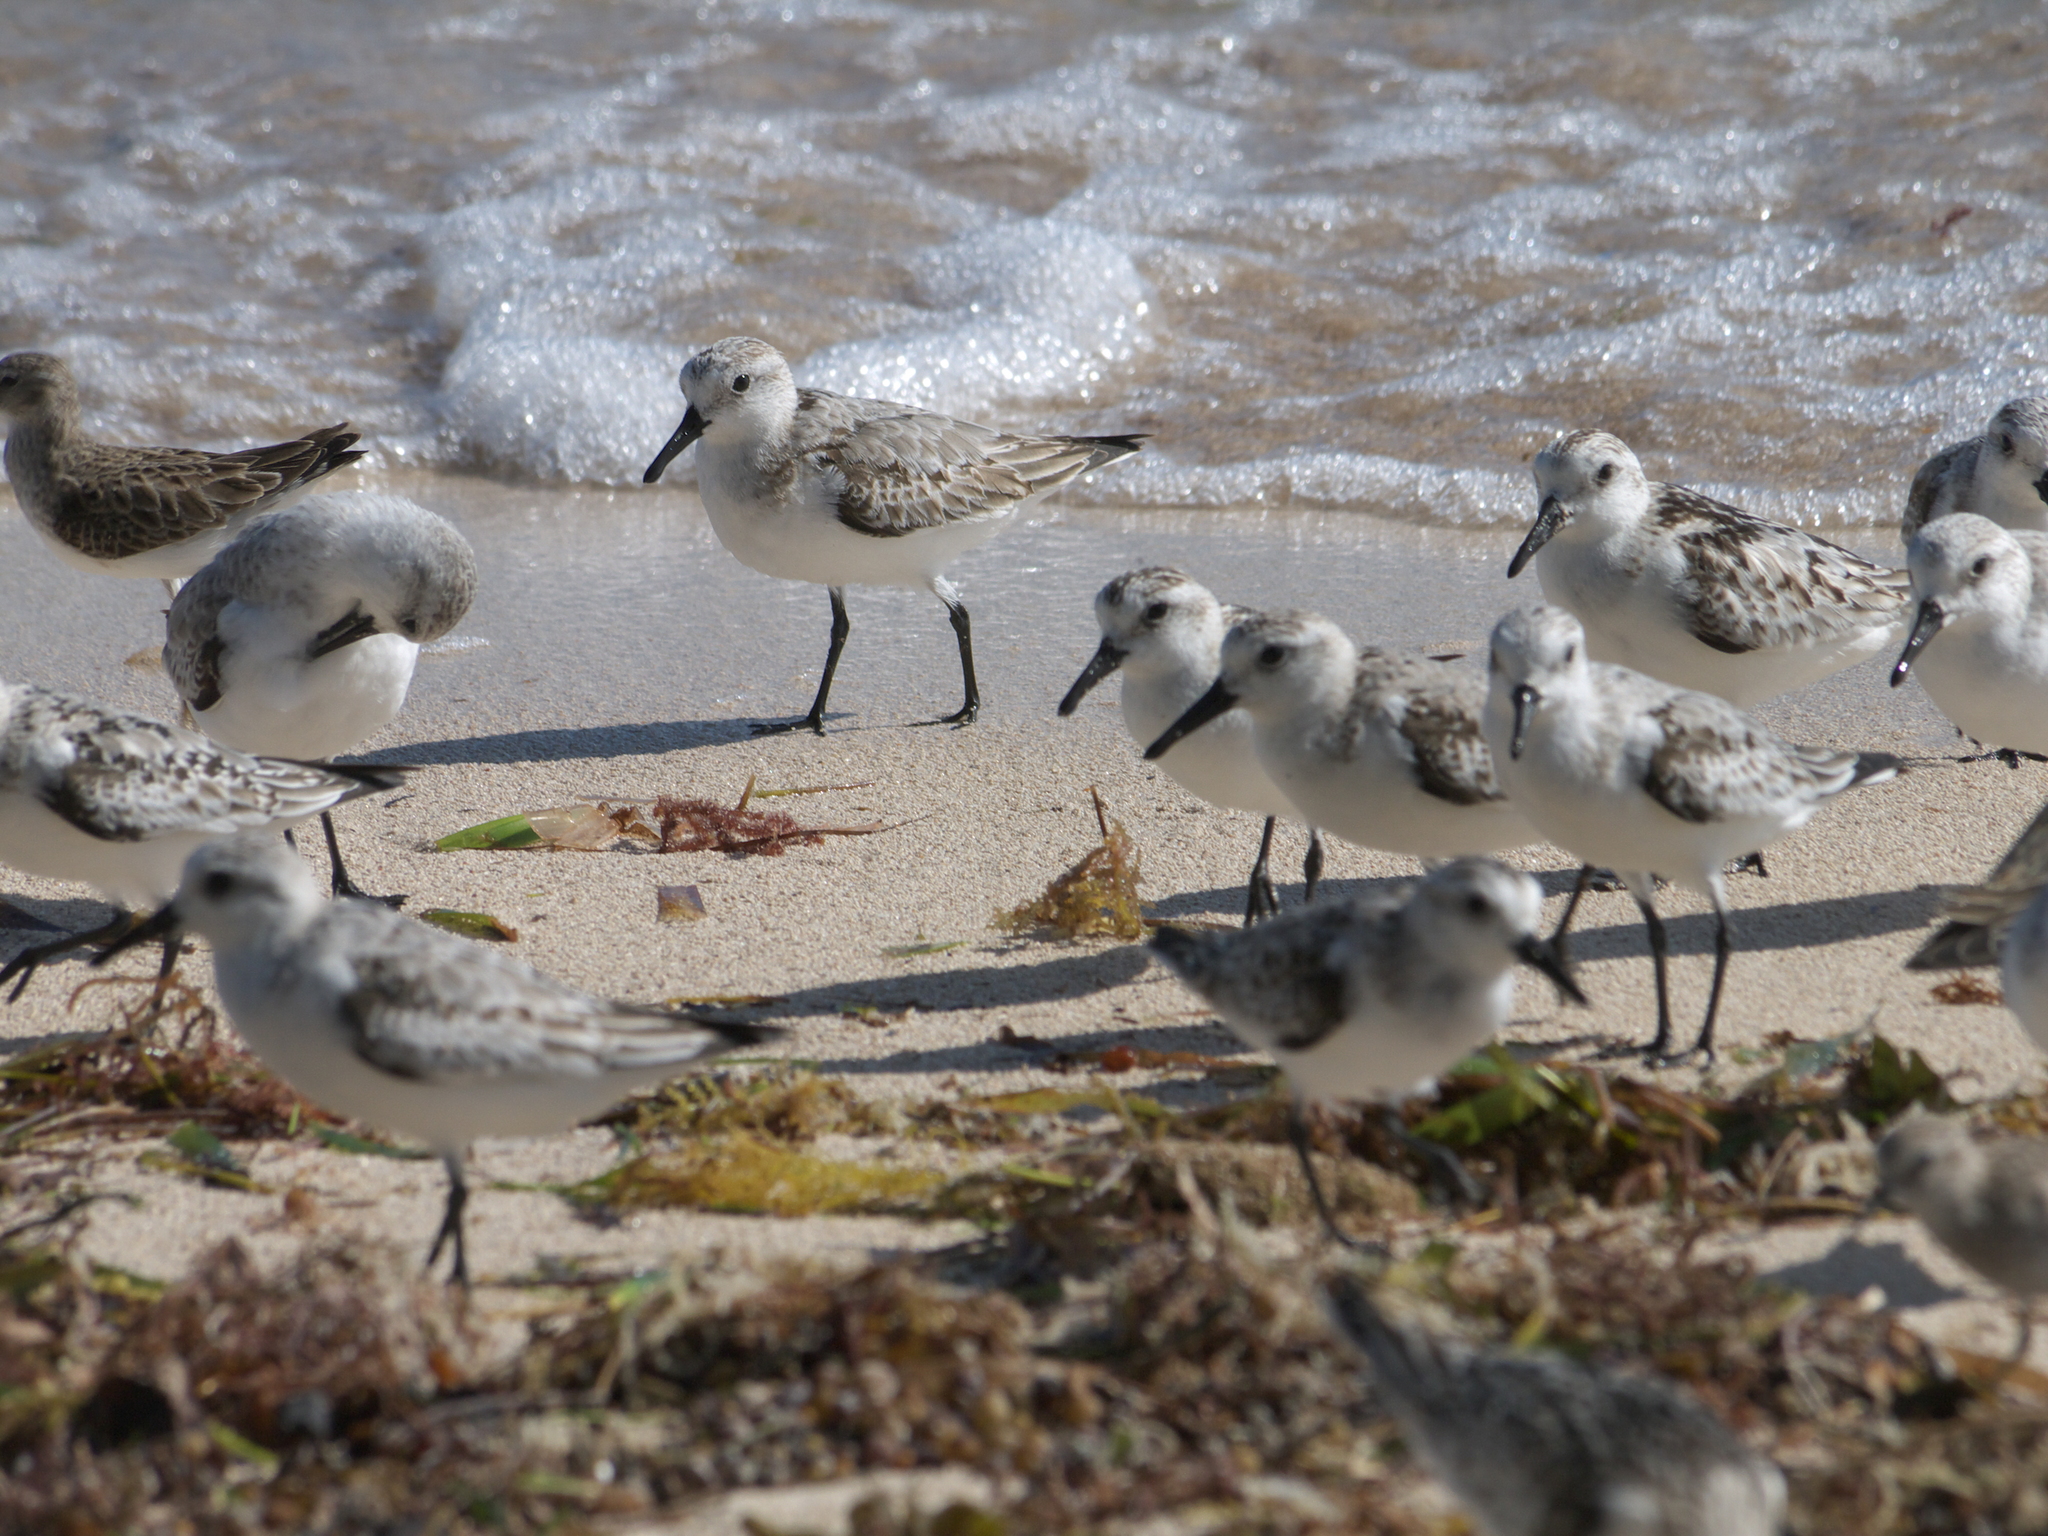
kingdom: Animalia
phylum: Chordata
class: Aves
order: Charadriiformes
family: Scolopacidae
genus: Calidris
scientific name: Calidris alba
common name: Sanderling
